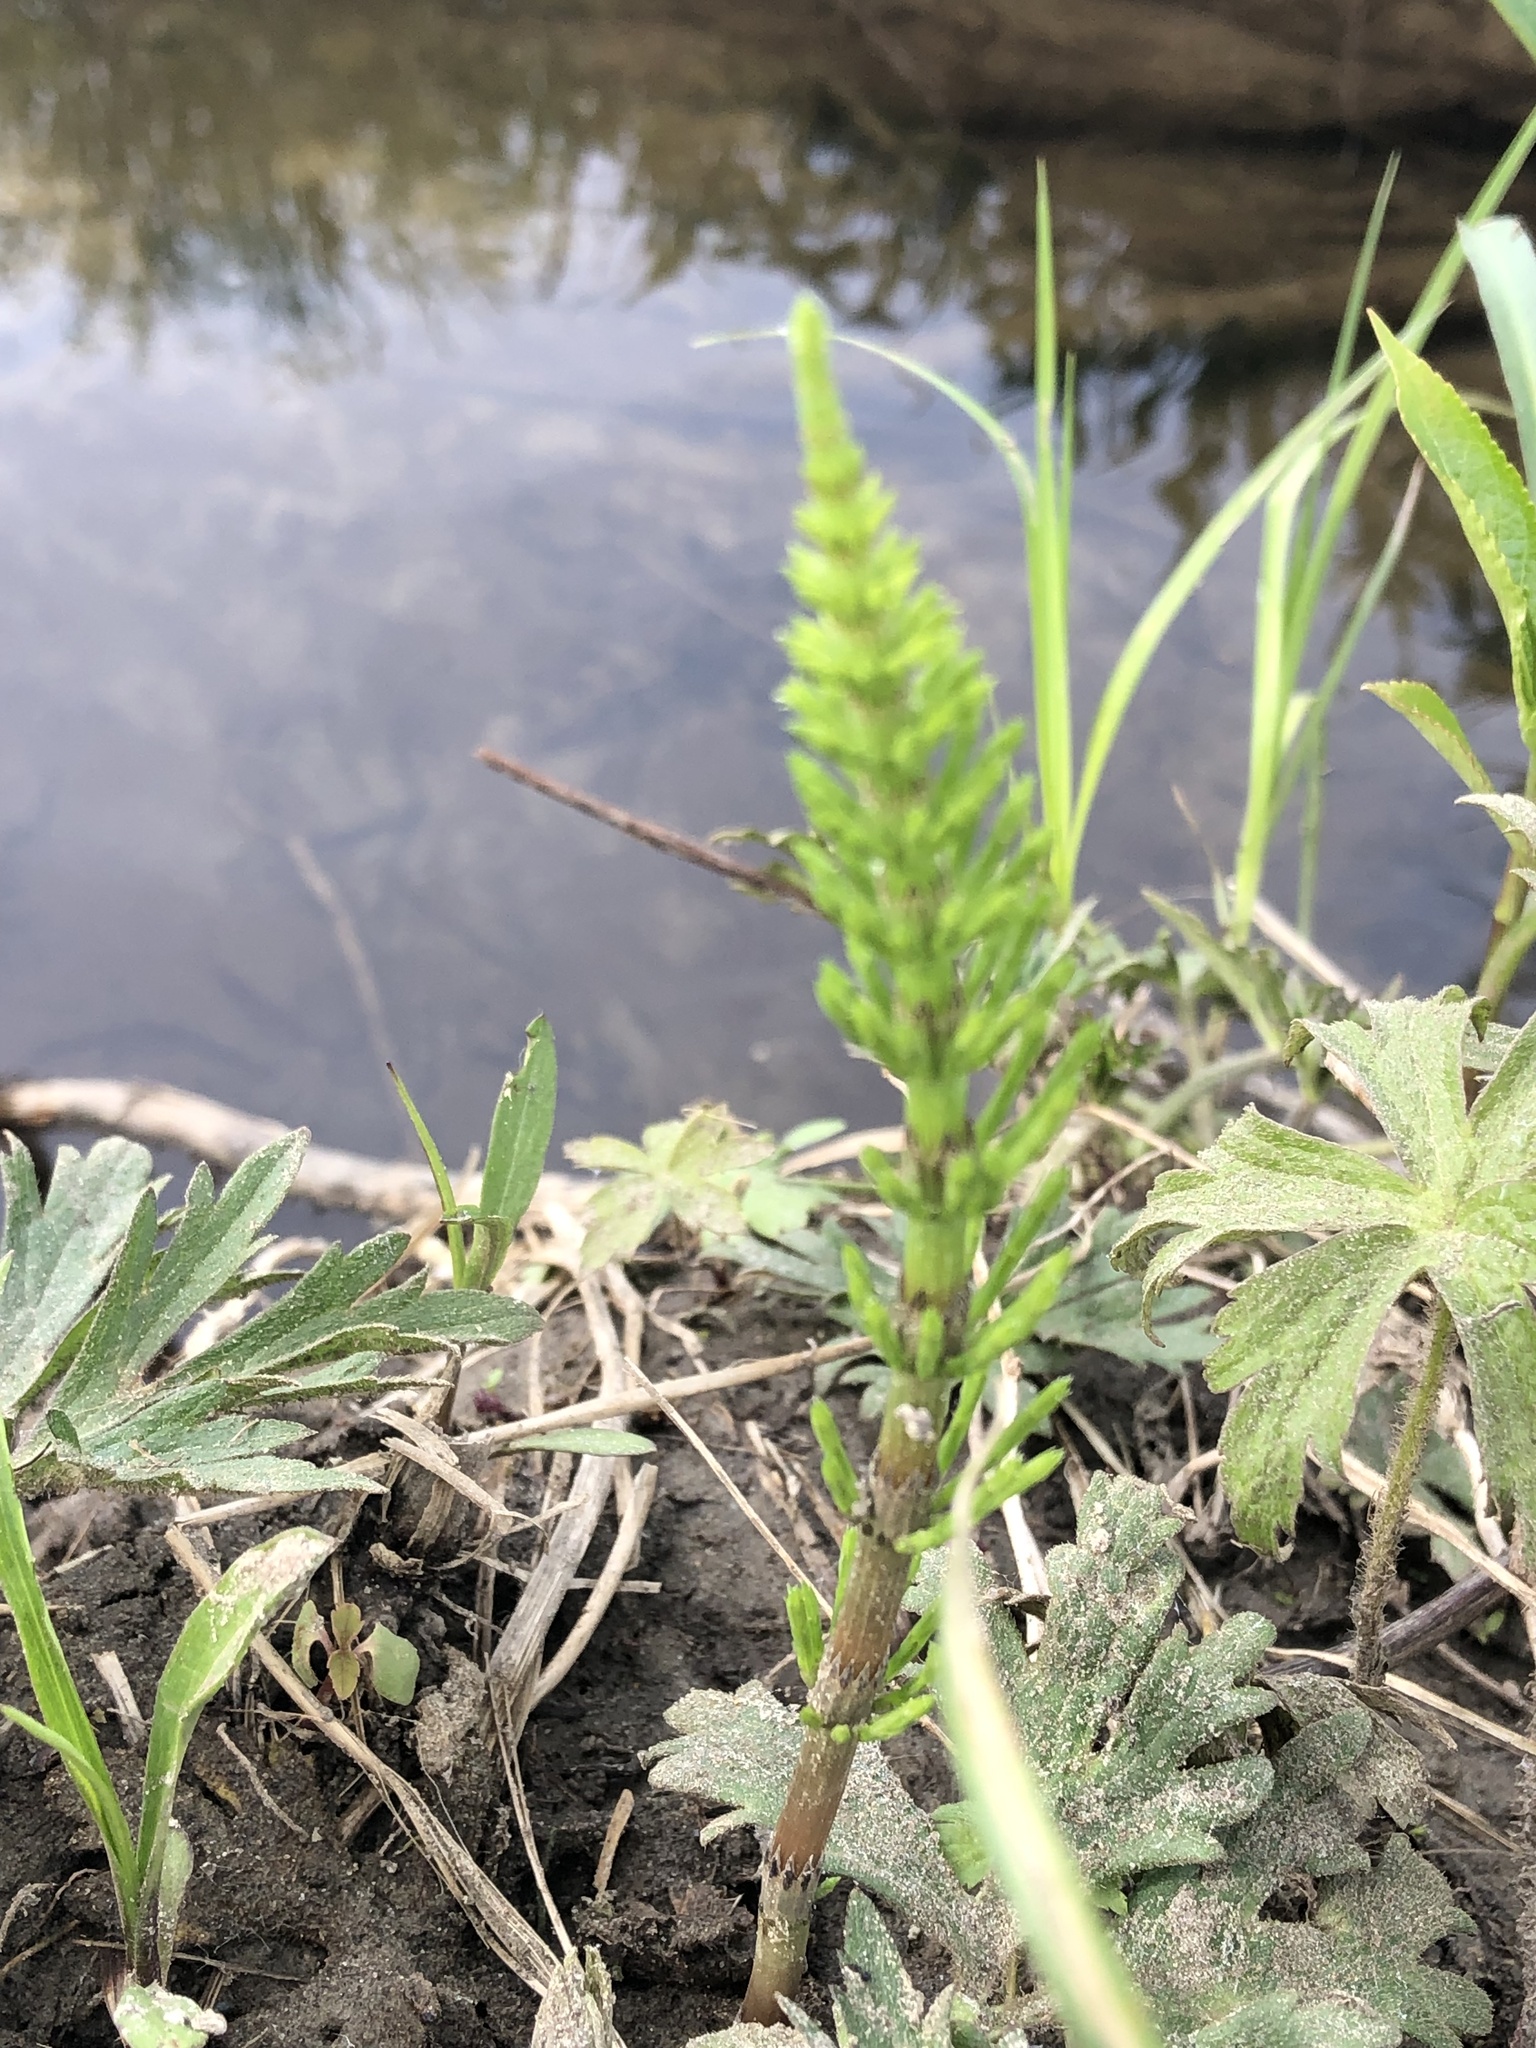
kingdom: Plantae
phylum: Tracheophyta
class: Polypodiopsida
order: Equisetales
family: Equisetaceae
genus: Equisetum
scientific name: Equisetum arvense
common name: Field horsetail
